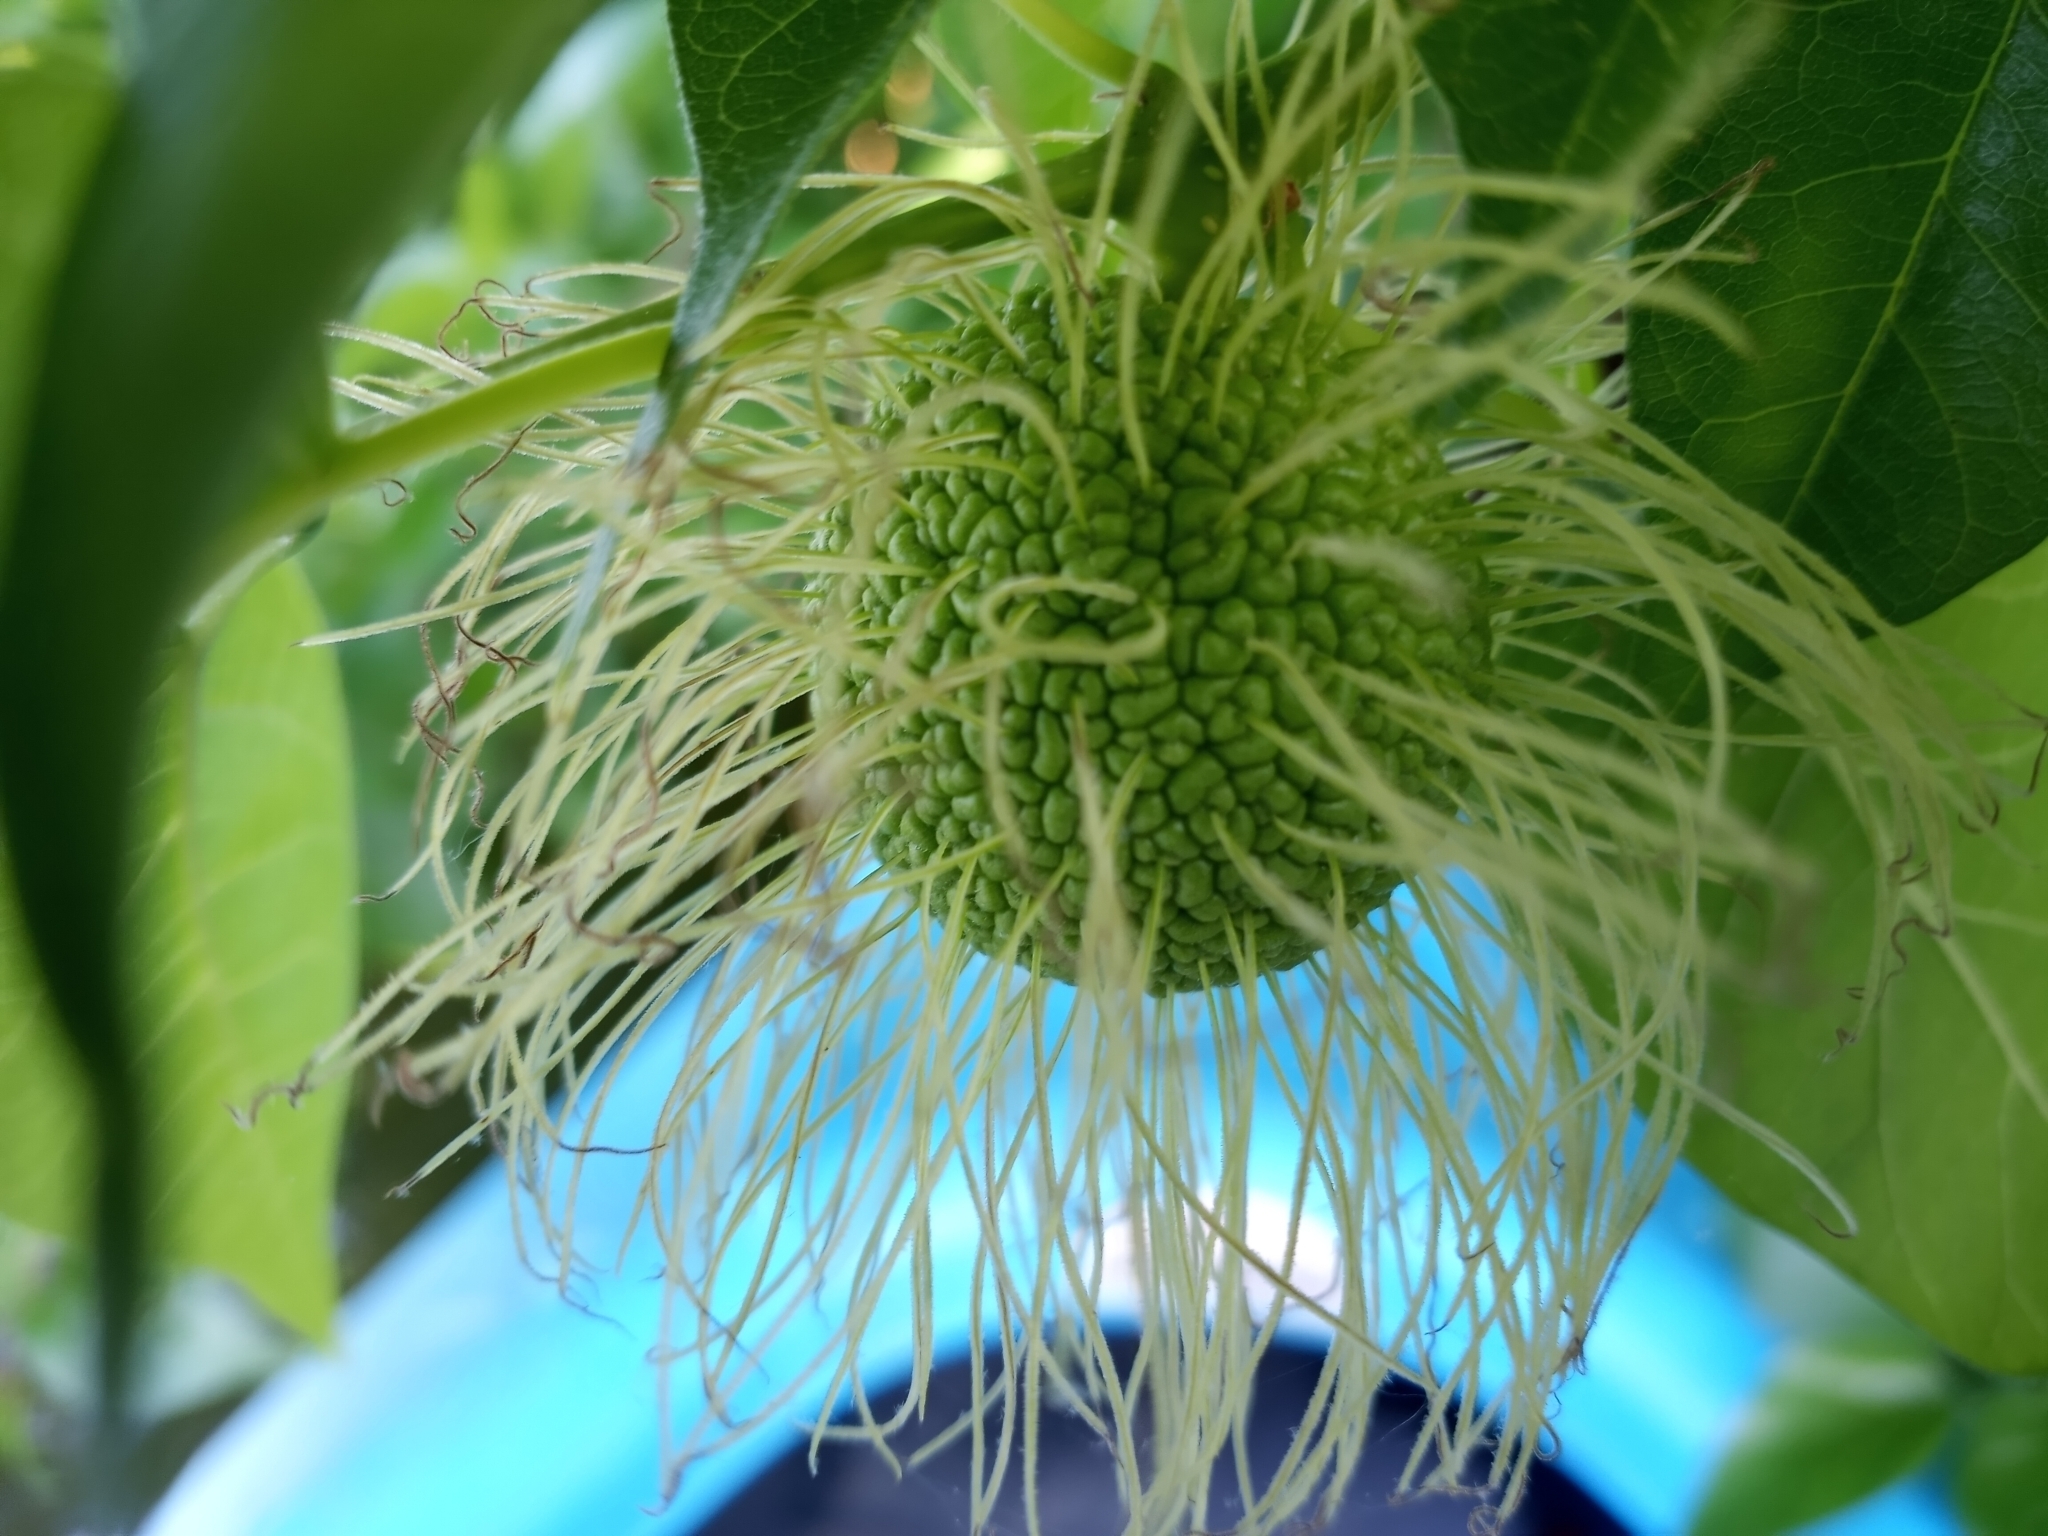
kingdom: Plantae
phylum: Tracheophyta
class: Magnoliopsida
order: Rosales
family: Moraceae
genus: Maclura
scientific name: Maclura pomifera
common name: Osage-orange
